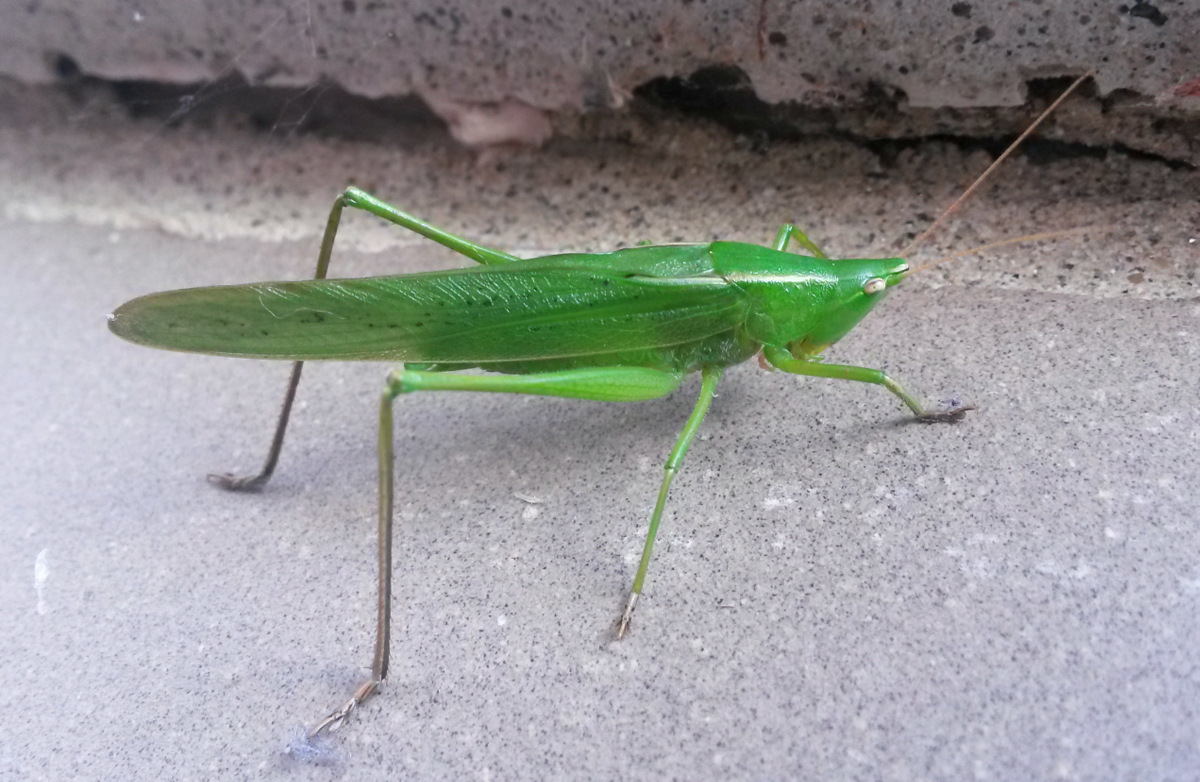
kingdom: Animalia
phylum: Arthropoda
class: Insecta
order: Orthoptera
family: Tettigoniidae
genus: Neoconocephalus
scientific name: Neoconocephalus retusus
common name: Round-tipped conehead
